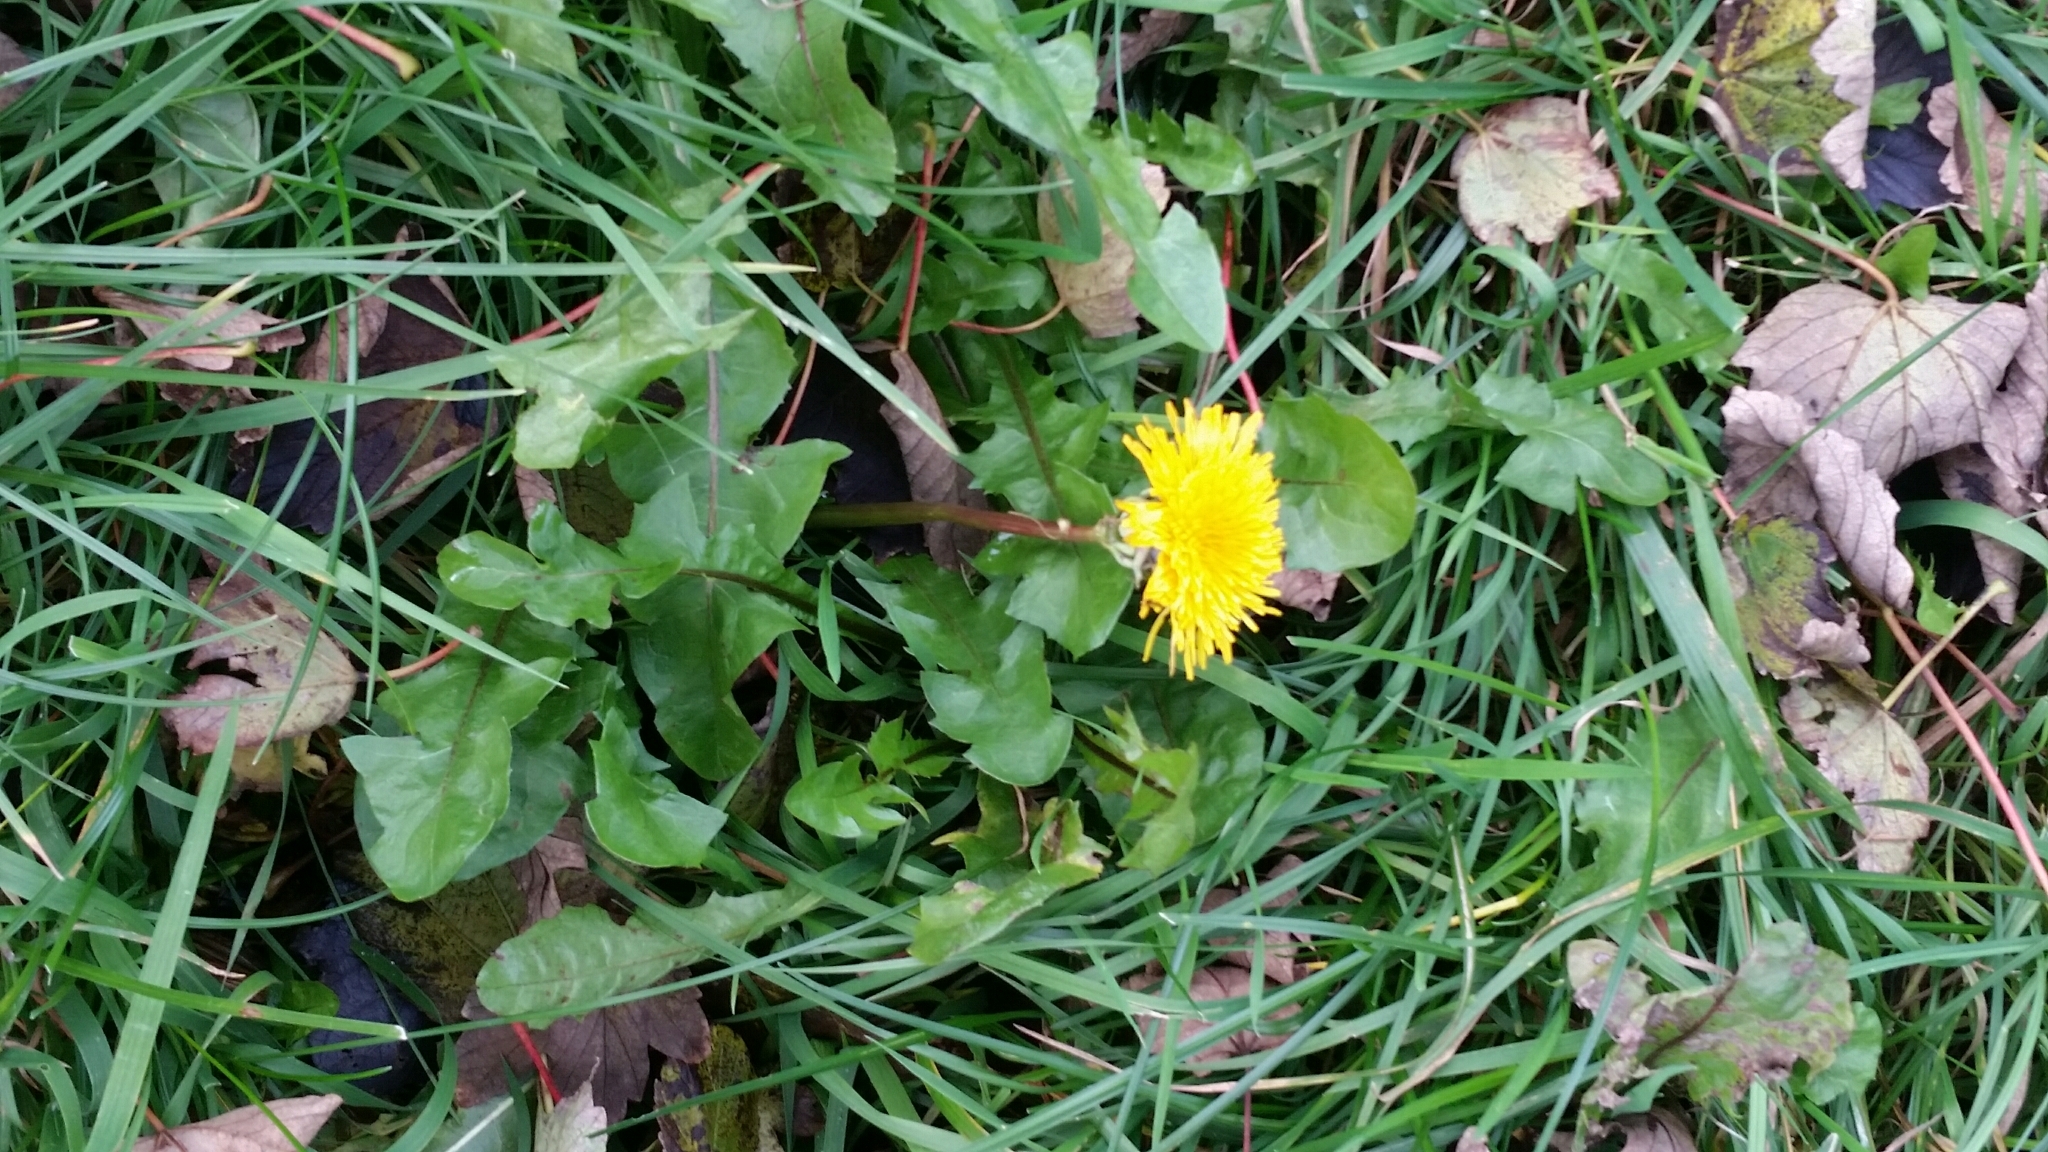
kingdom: Plantae
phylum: Tracheophyta
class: Magnoliopsida
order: Asterales
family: Asteraceae
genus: Taraxacum
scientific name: Taraxacum officinale
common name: Common dandelion
